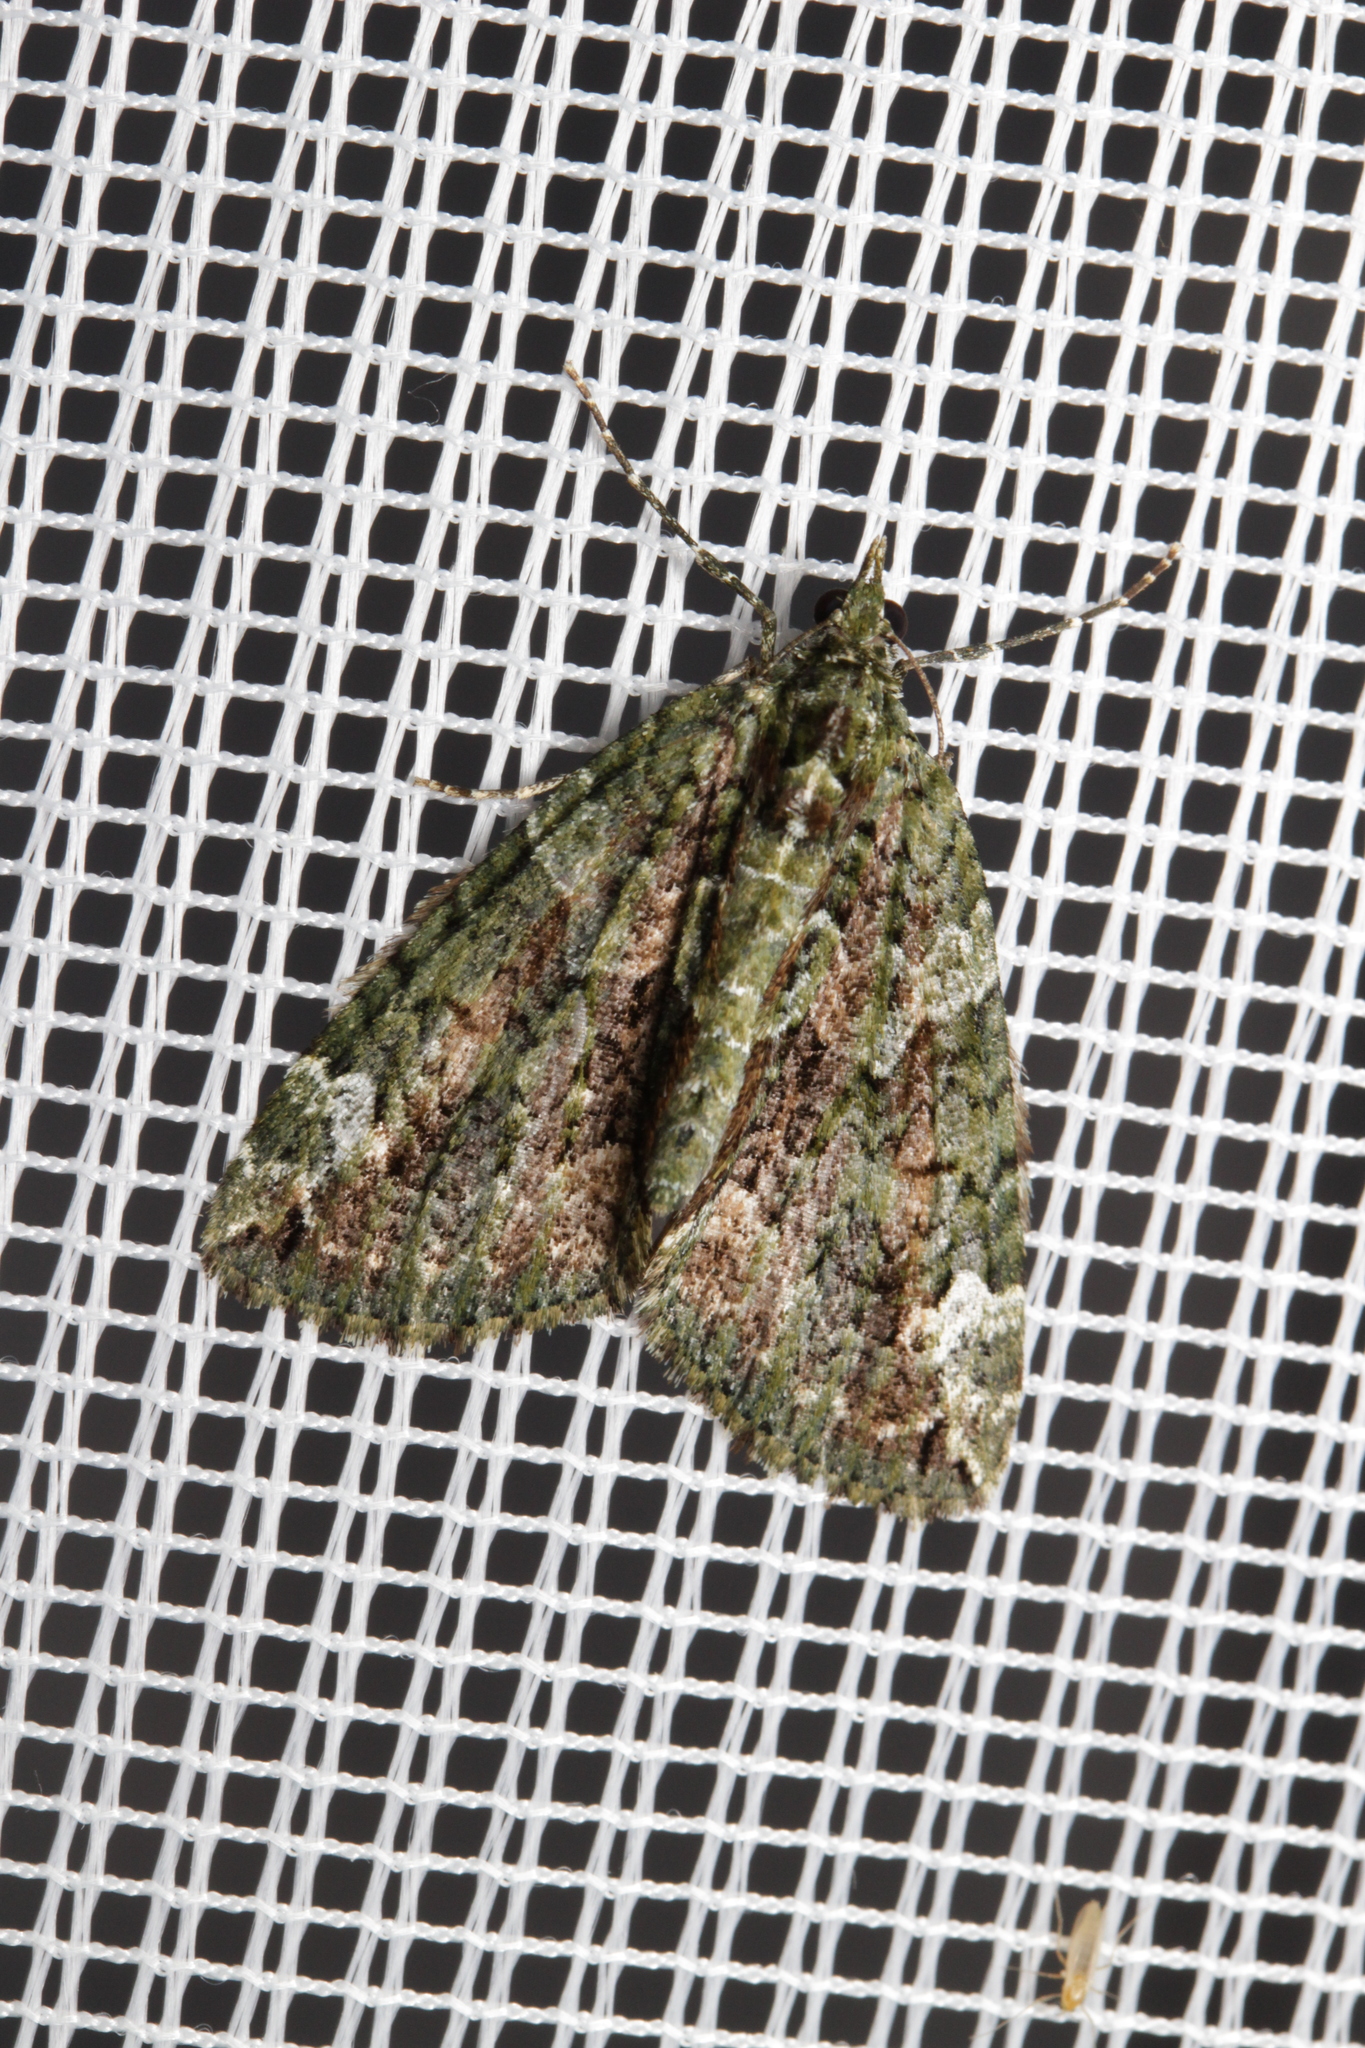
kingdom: Animalia
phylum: Arthropoda
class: Insecta
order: Lepidoptera
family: Geometridae
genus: Chloroclysta
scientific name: Chloroclysta siterata
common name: Red-green carpet
